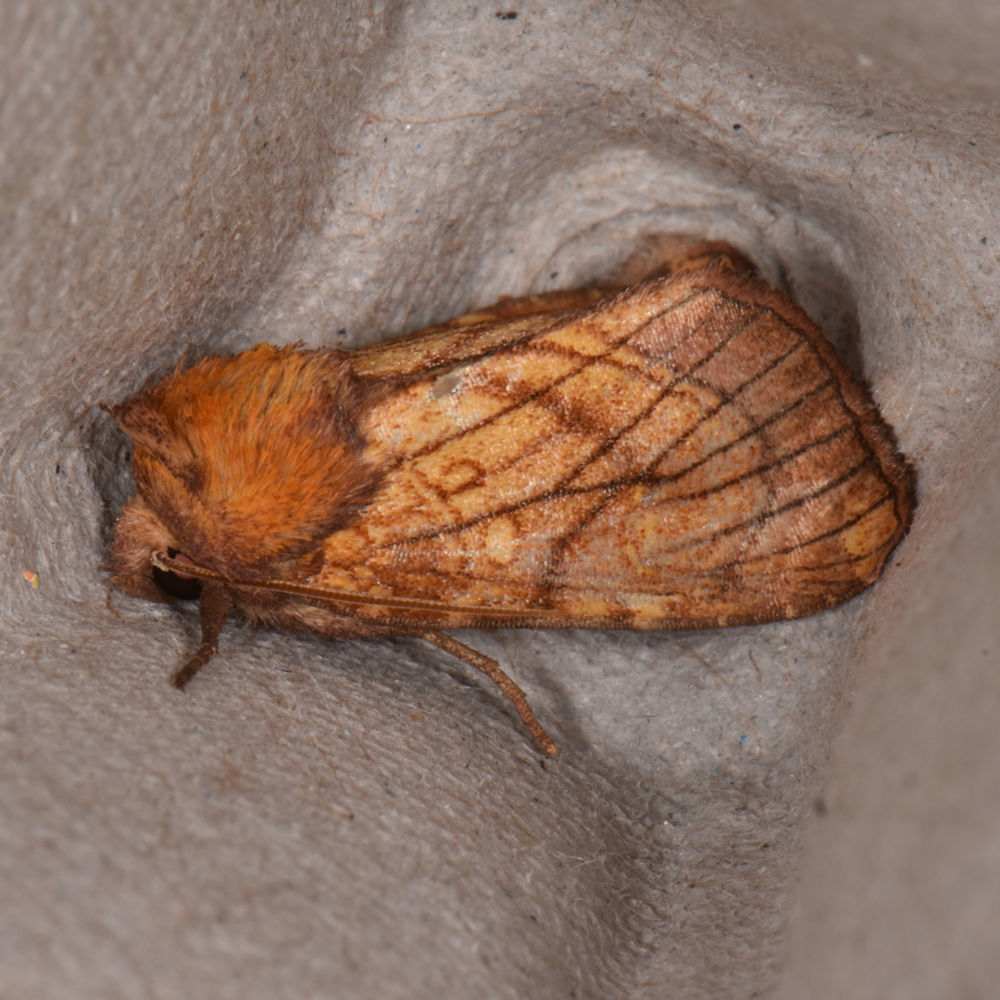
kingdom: Animalia
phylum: Arthropoda
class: Insecta
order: Lepidoptera
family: Noctuidae
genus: Papaipema
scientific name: Papaipema inquaesita
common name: Sensitive fern borer moth
